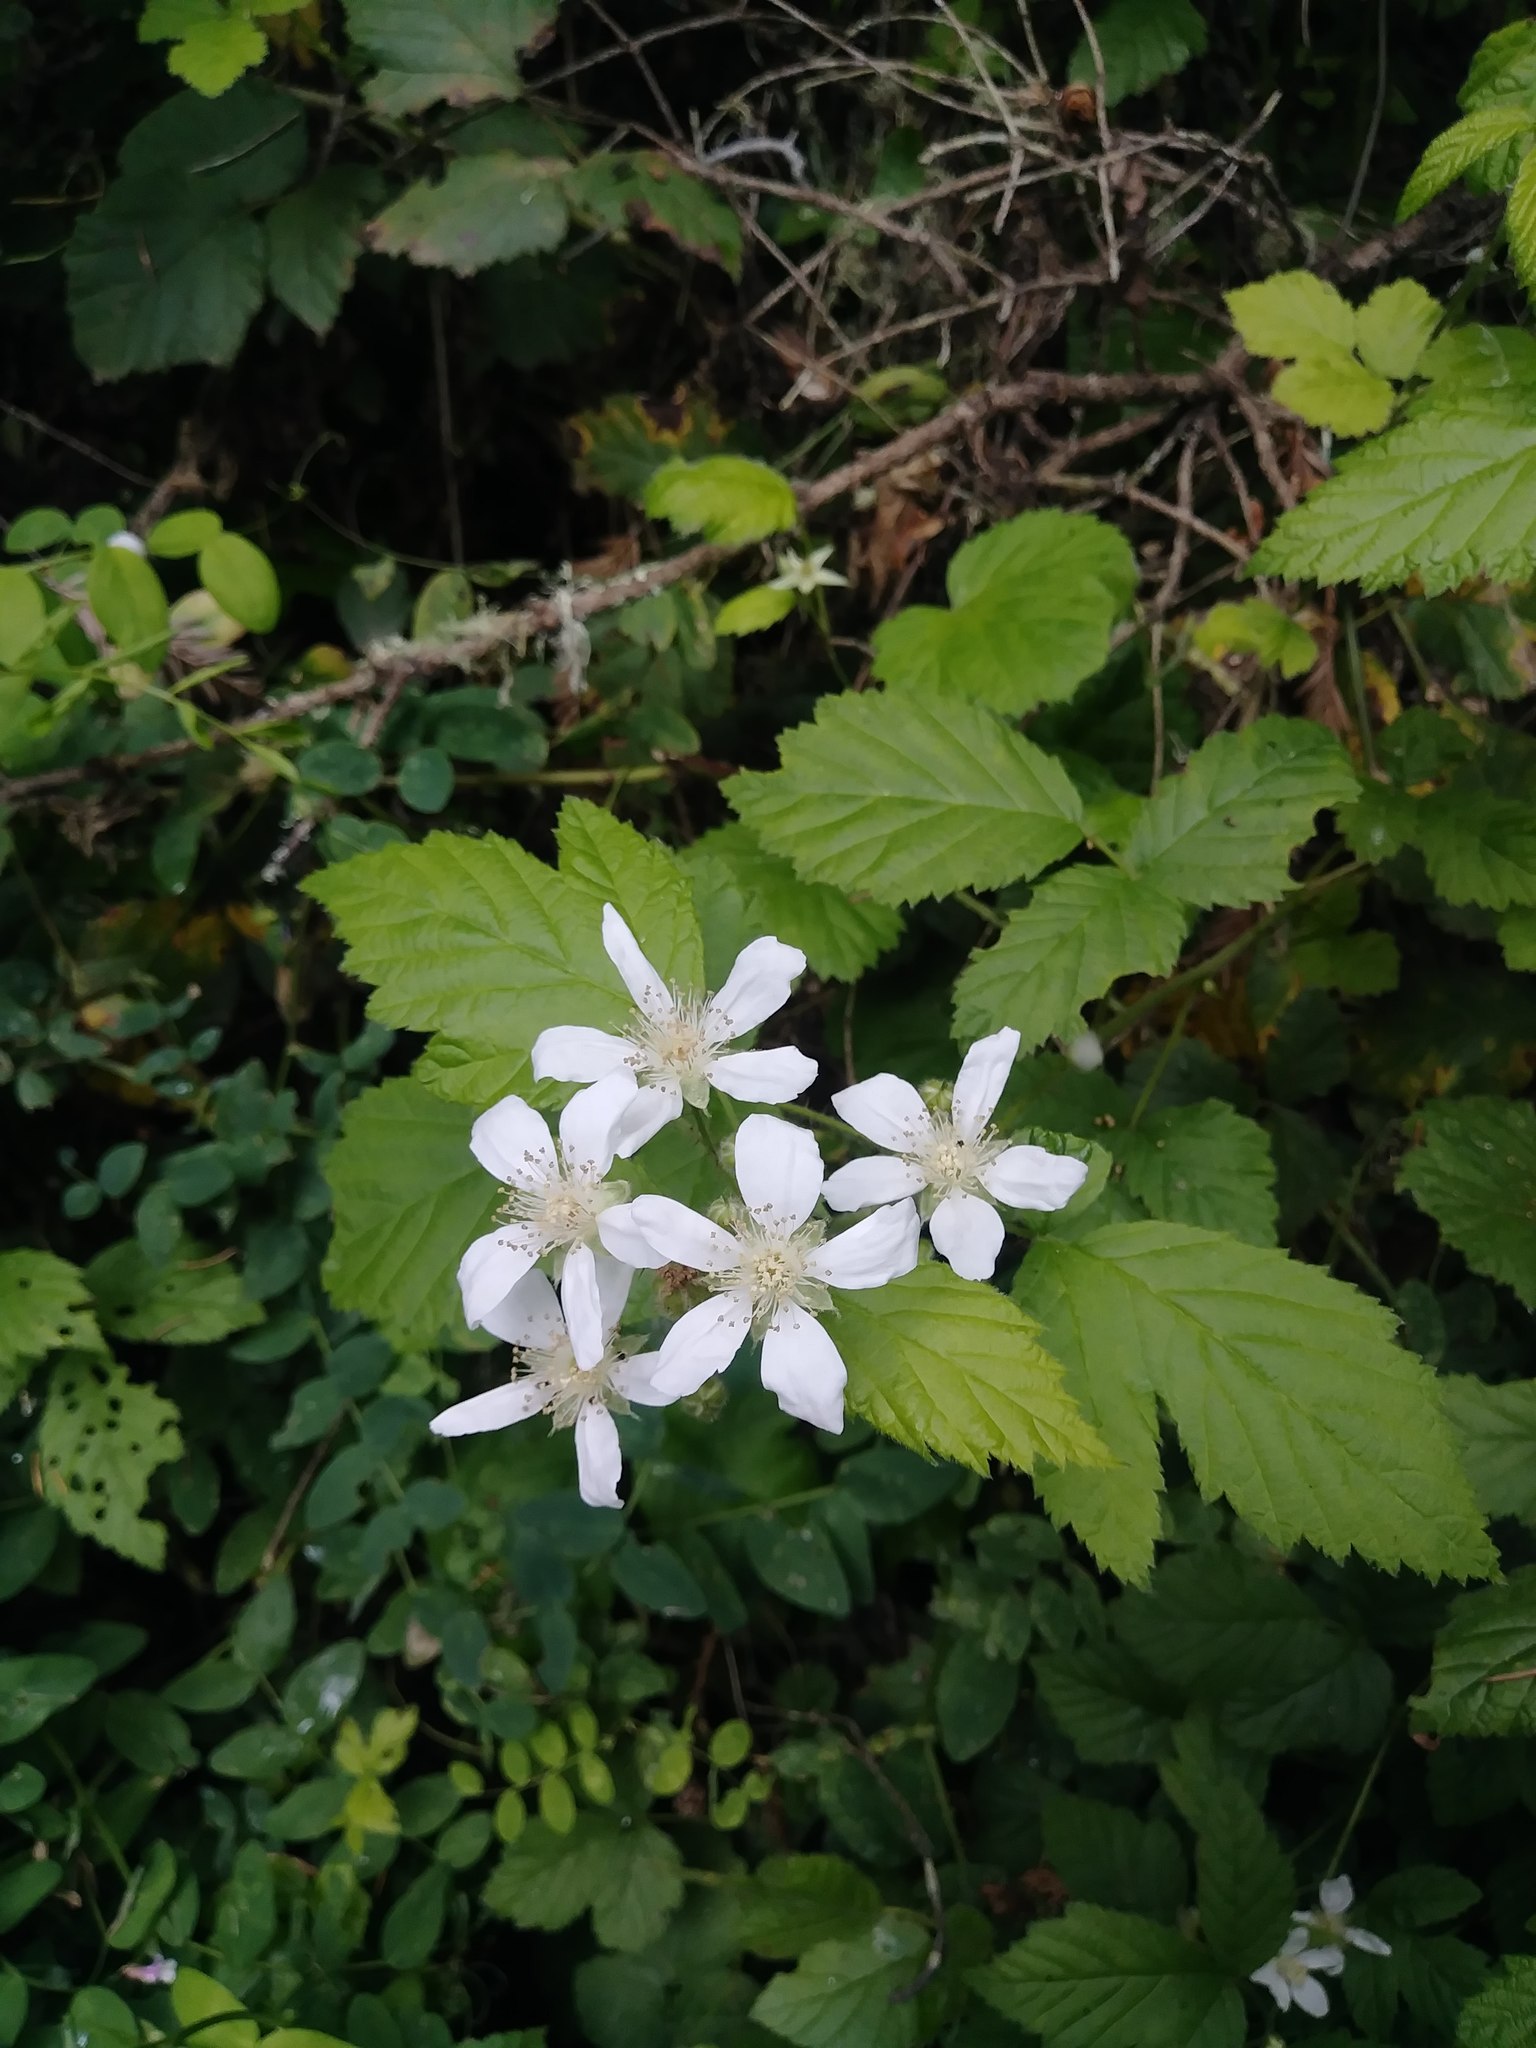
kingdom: Plantae
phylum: Tracheophyta
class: Magnoliopsida
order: Rosales
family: Rosaceae
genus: Rubus
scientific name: Rubus ursinus
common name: Pacific blackberry
